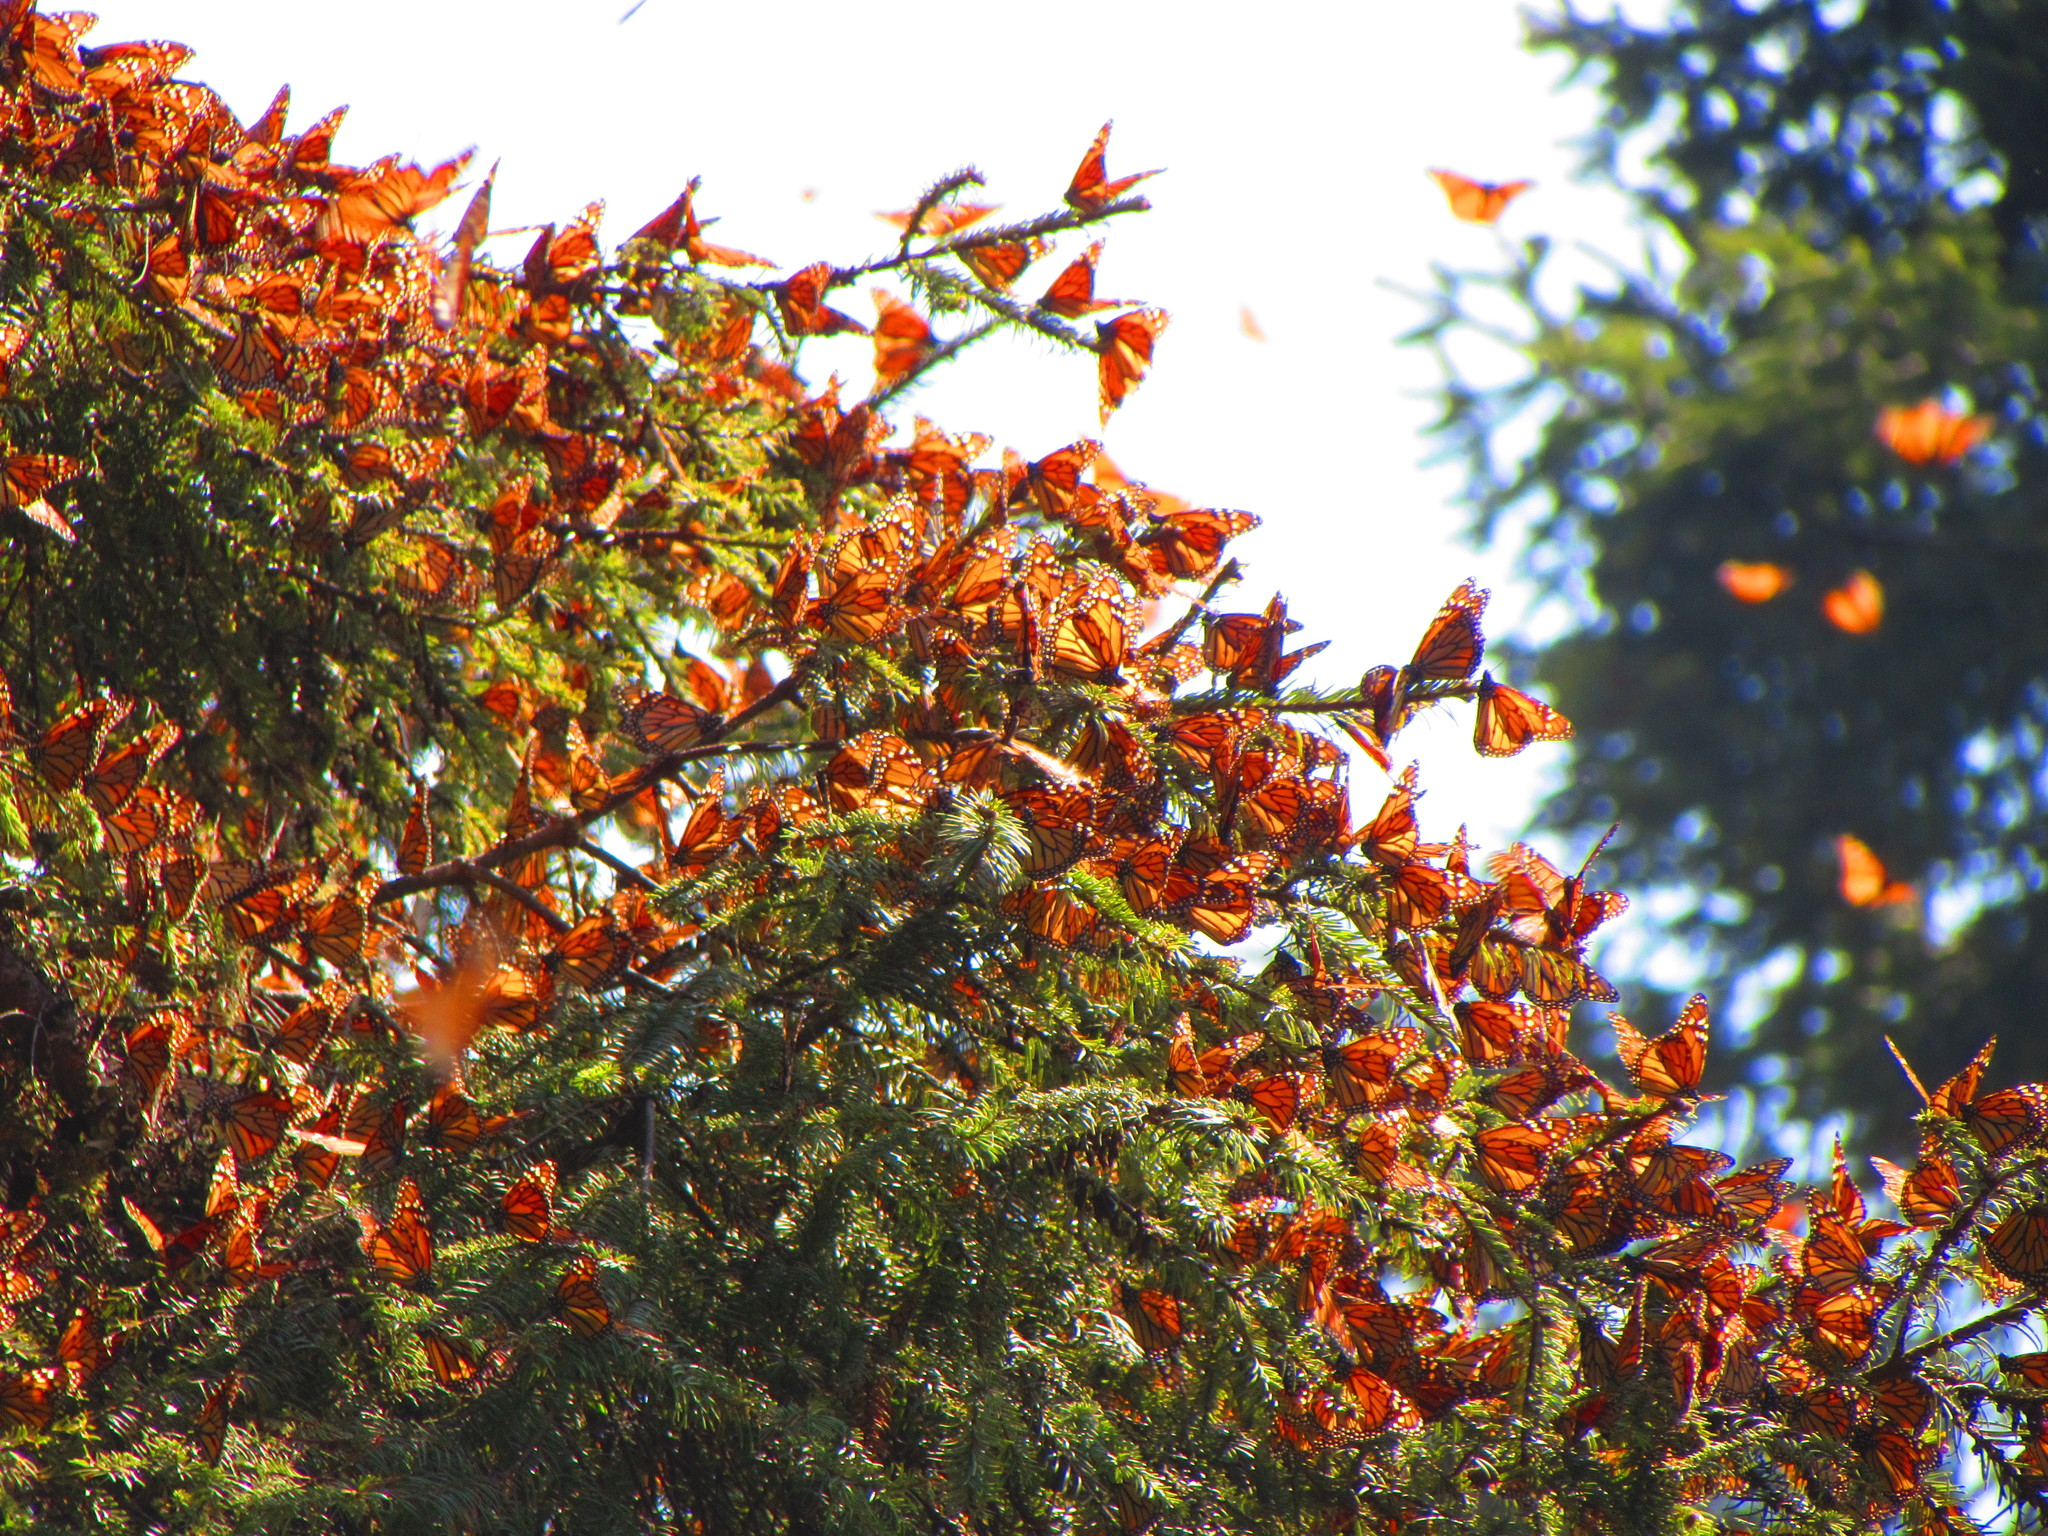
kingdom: Animalia
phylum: Arthropoda
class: Insecta
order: Lepidoptera
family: Nymphalidae
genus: Danaus
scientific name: Danaus plexippus
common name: Monarch
